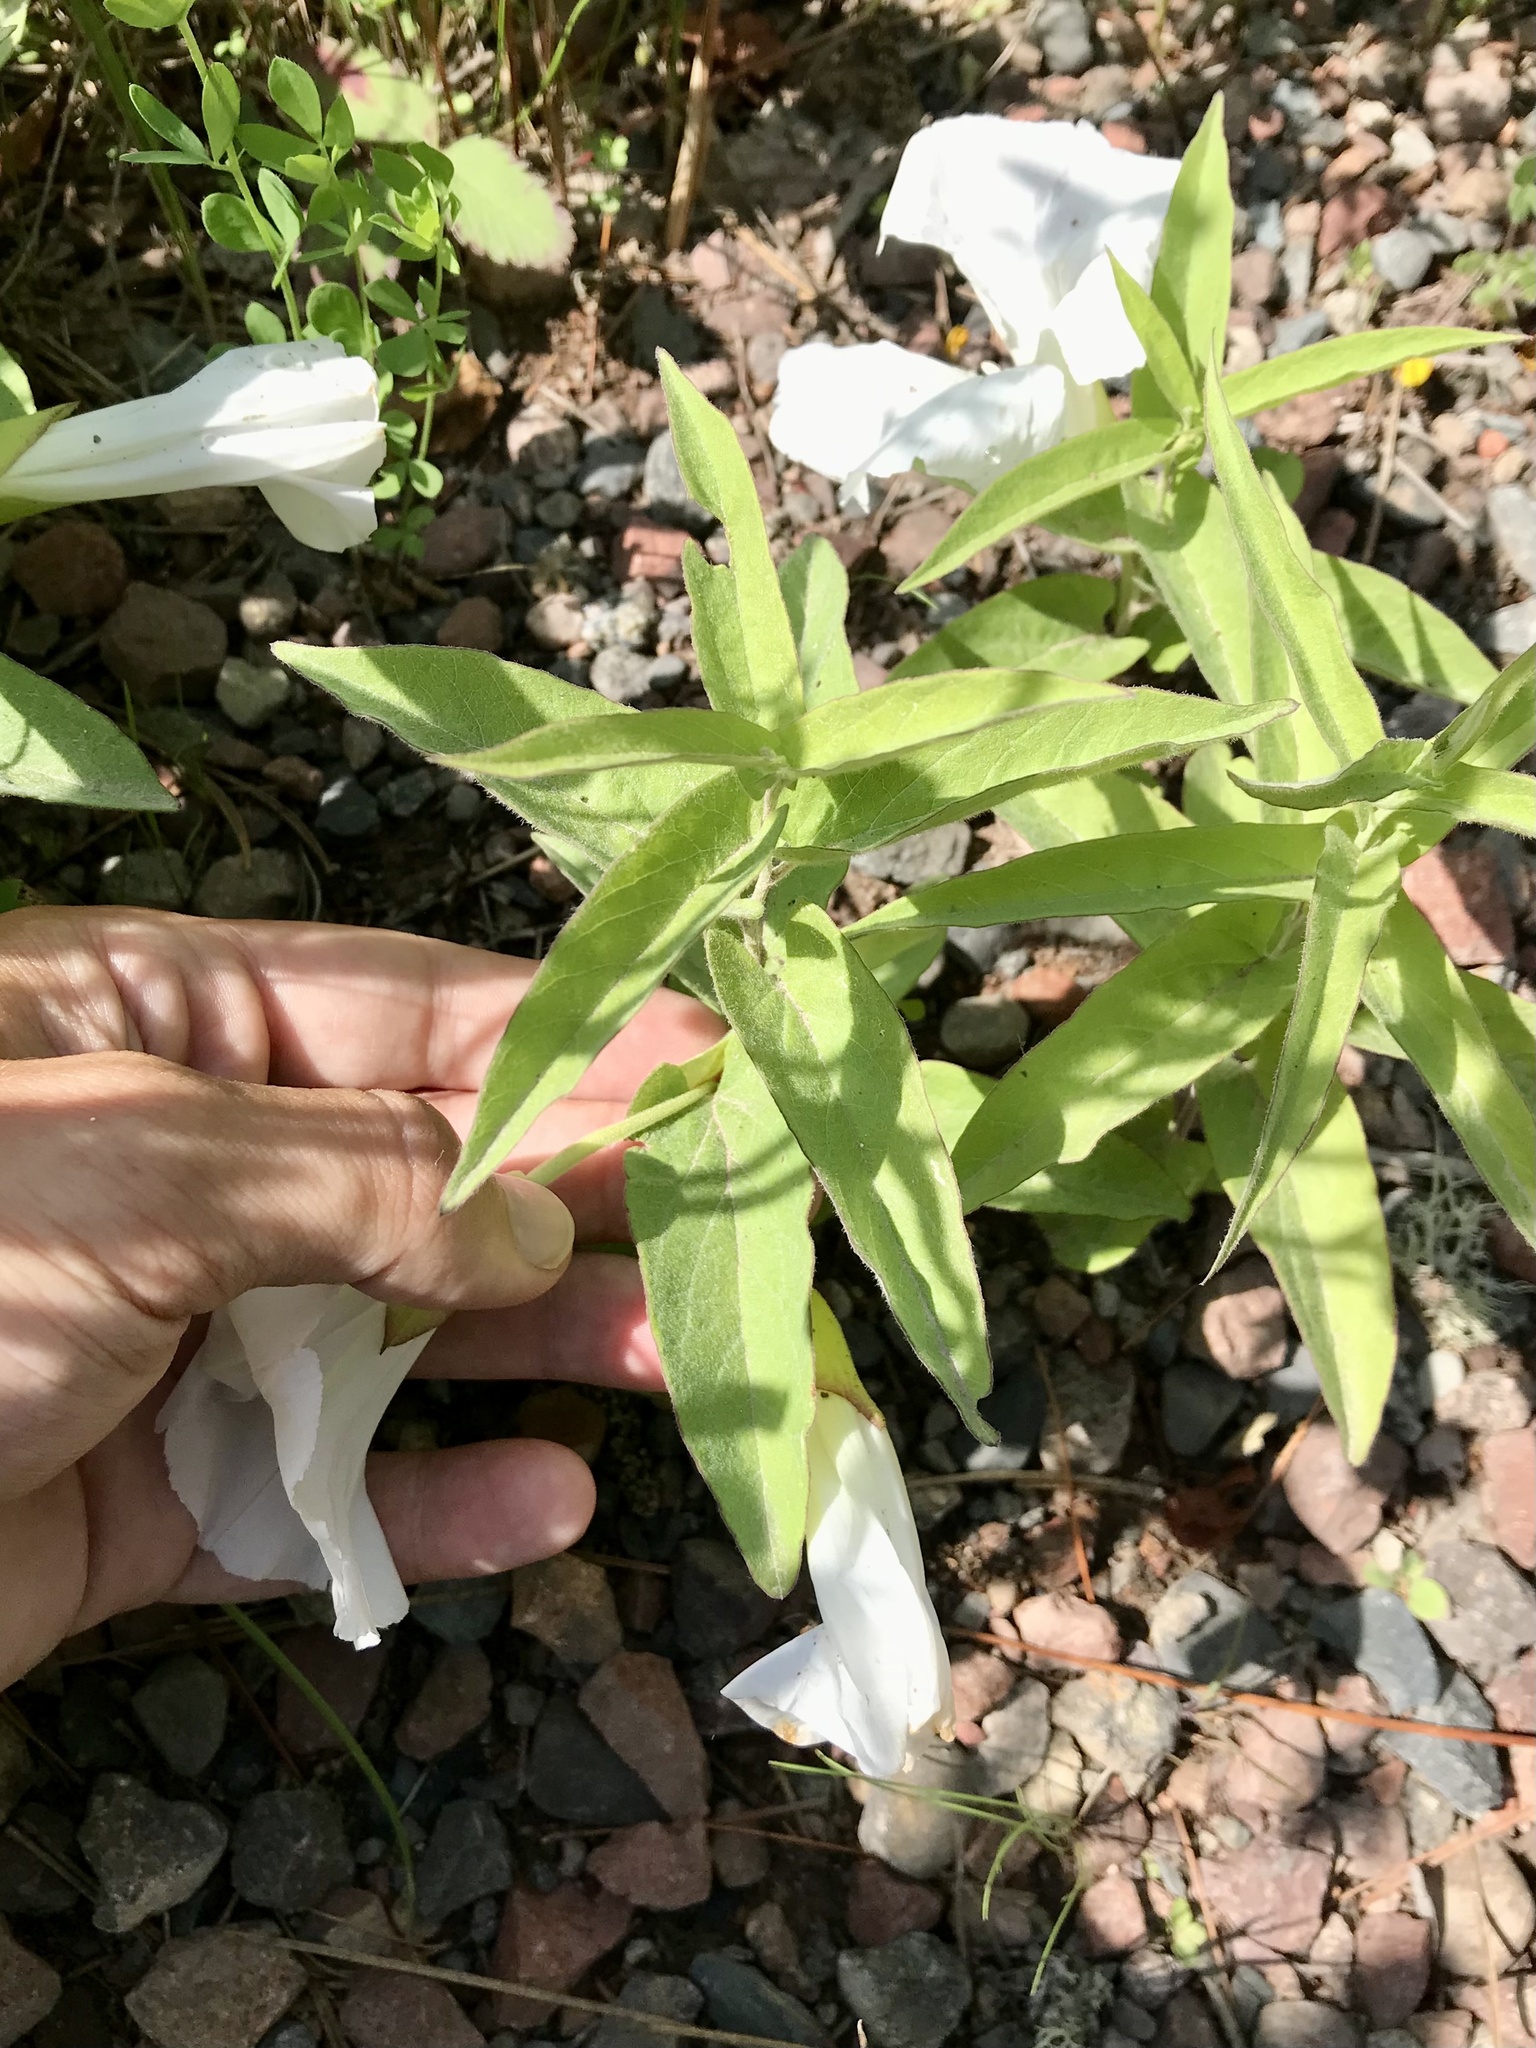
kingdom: Plantae
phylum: Tracheophyta
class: Magnoliopsida
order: Solanales
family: Convolvulaceae
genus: Calystegia
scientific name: Calystegia spithamaea
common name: Dwarf bindweed
